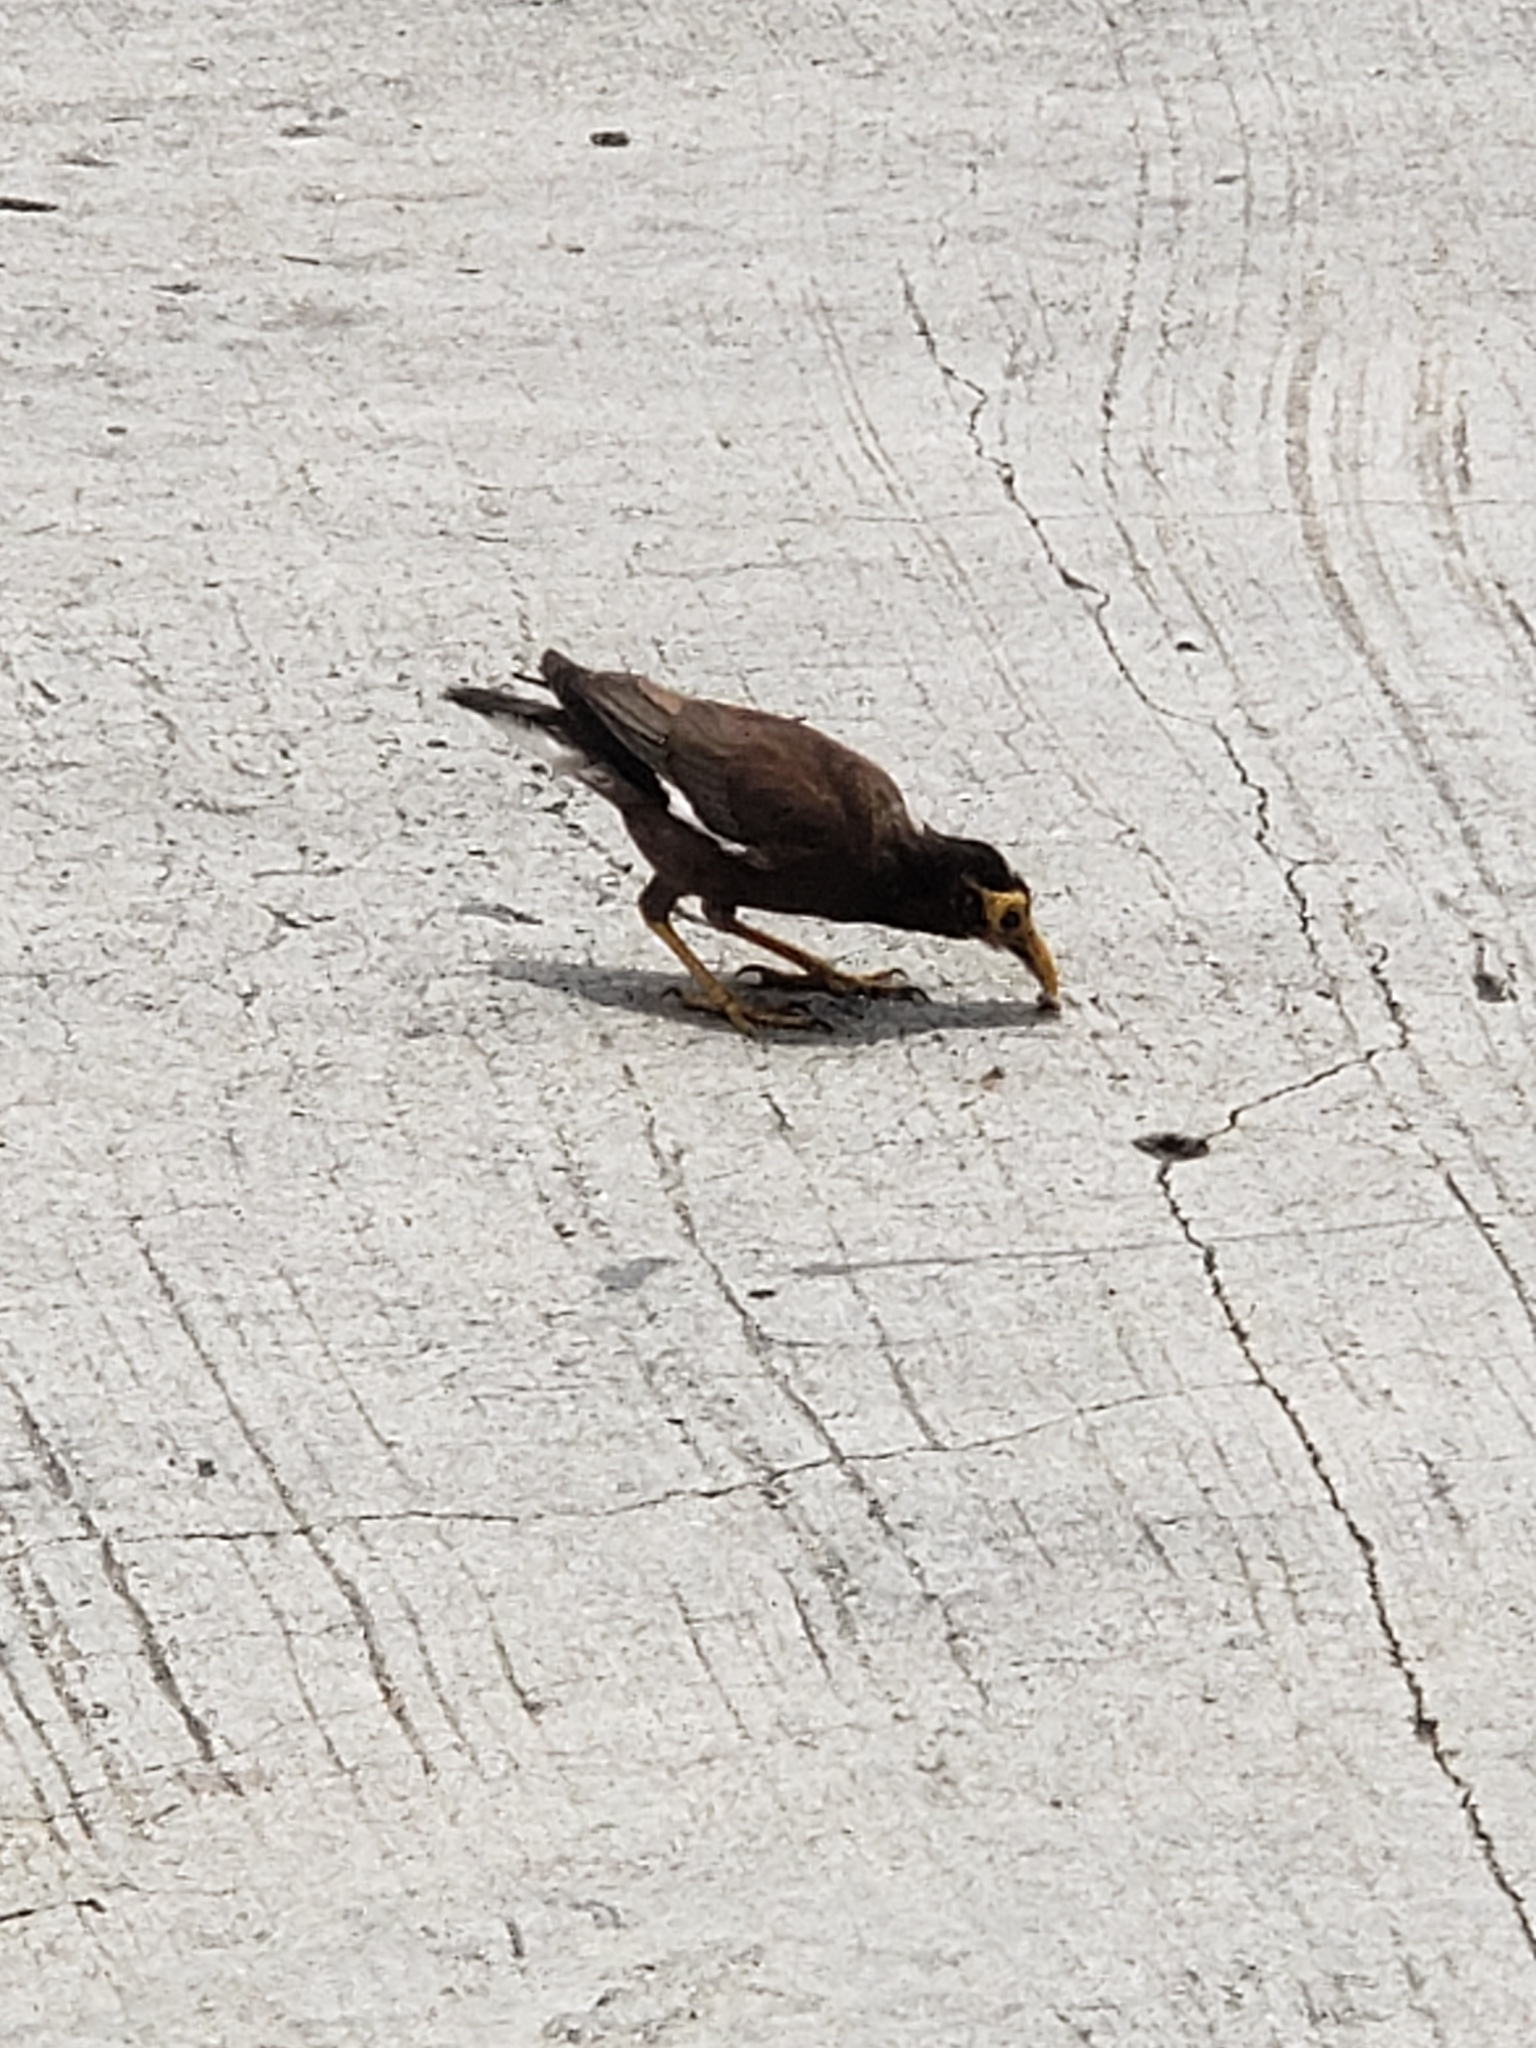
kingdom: Animalia
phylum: Chordata
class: Aves
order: Passeriformes
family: Sturnidae
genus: Acridotheres
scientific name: Acridotheres tristis
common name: Common myna
